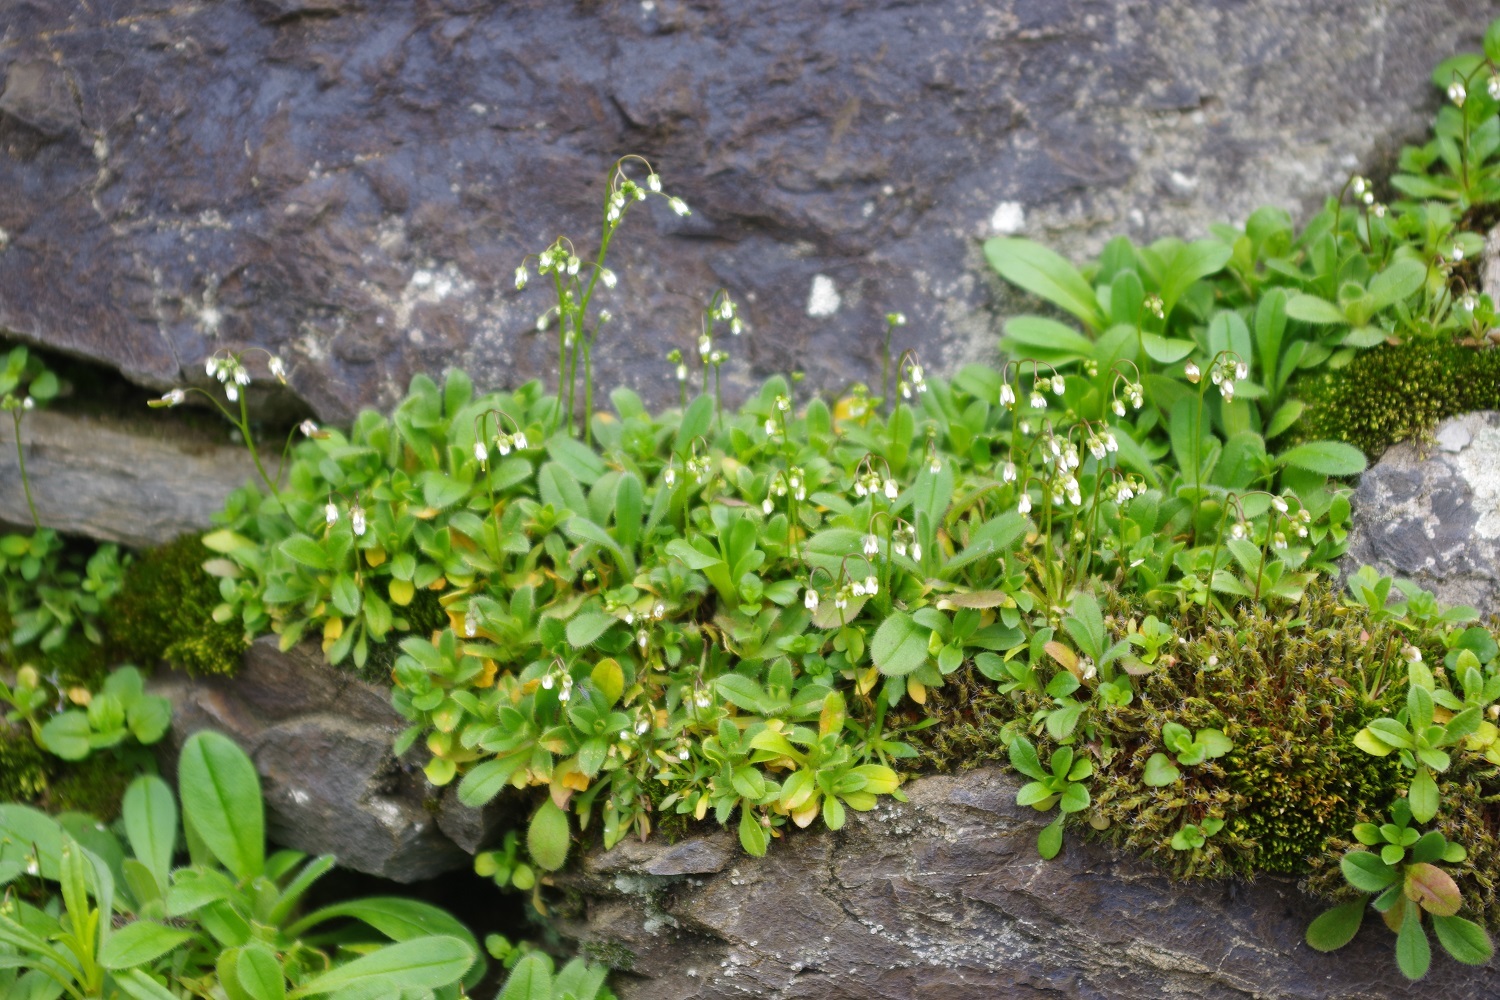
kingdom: Plantae
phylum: Tracheophyta
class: Magnoliopsida
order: Brassicales
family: Brassicaceae
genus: Draba
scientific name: Draba verna
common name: Spring draba
